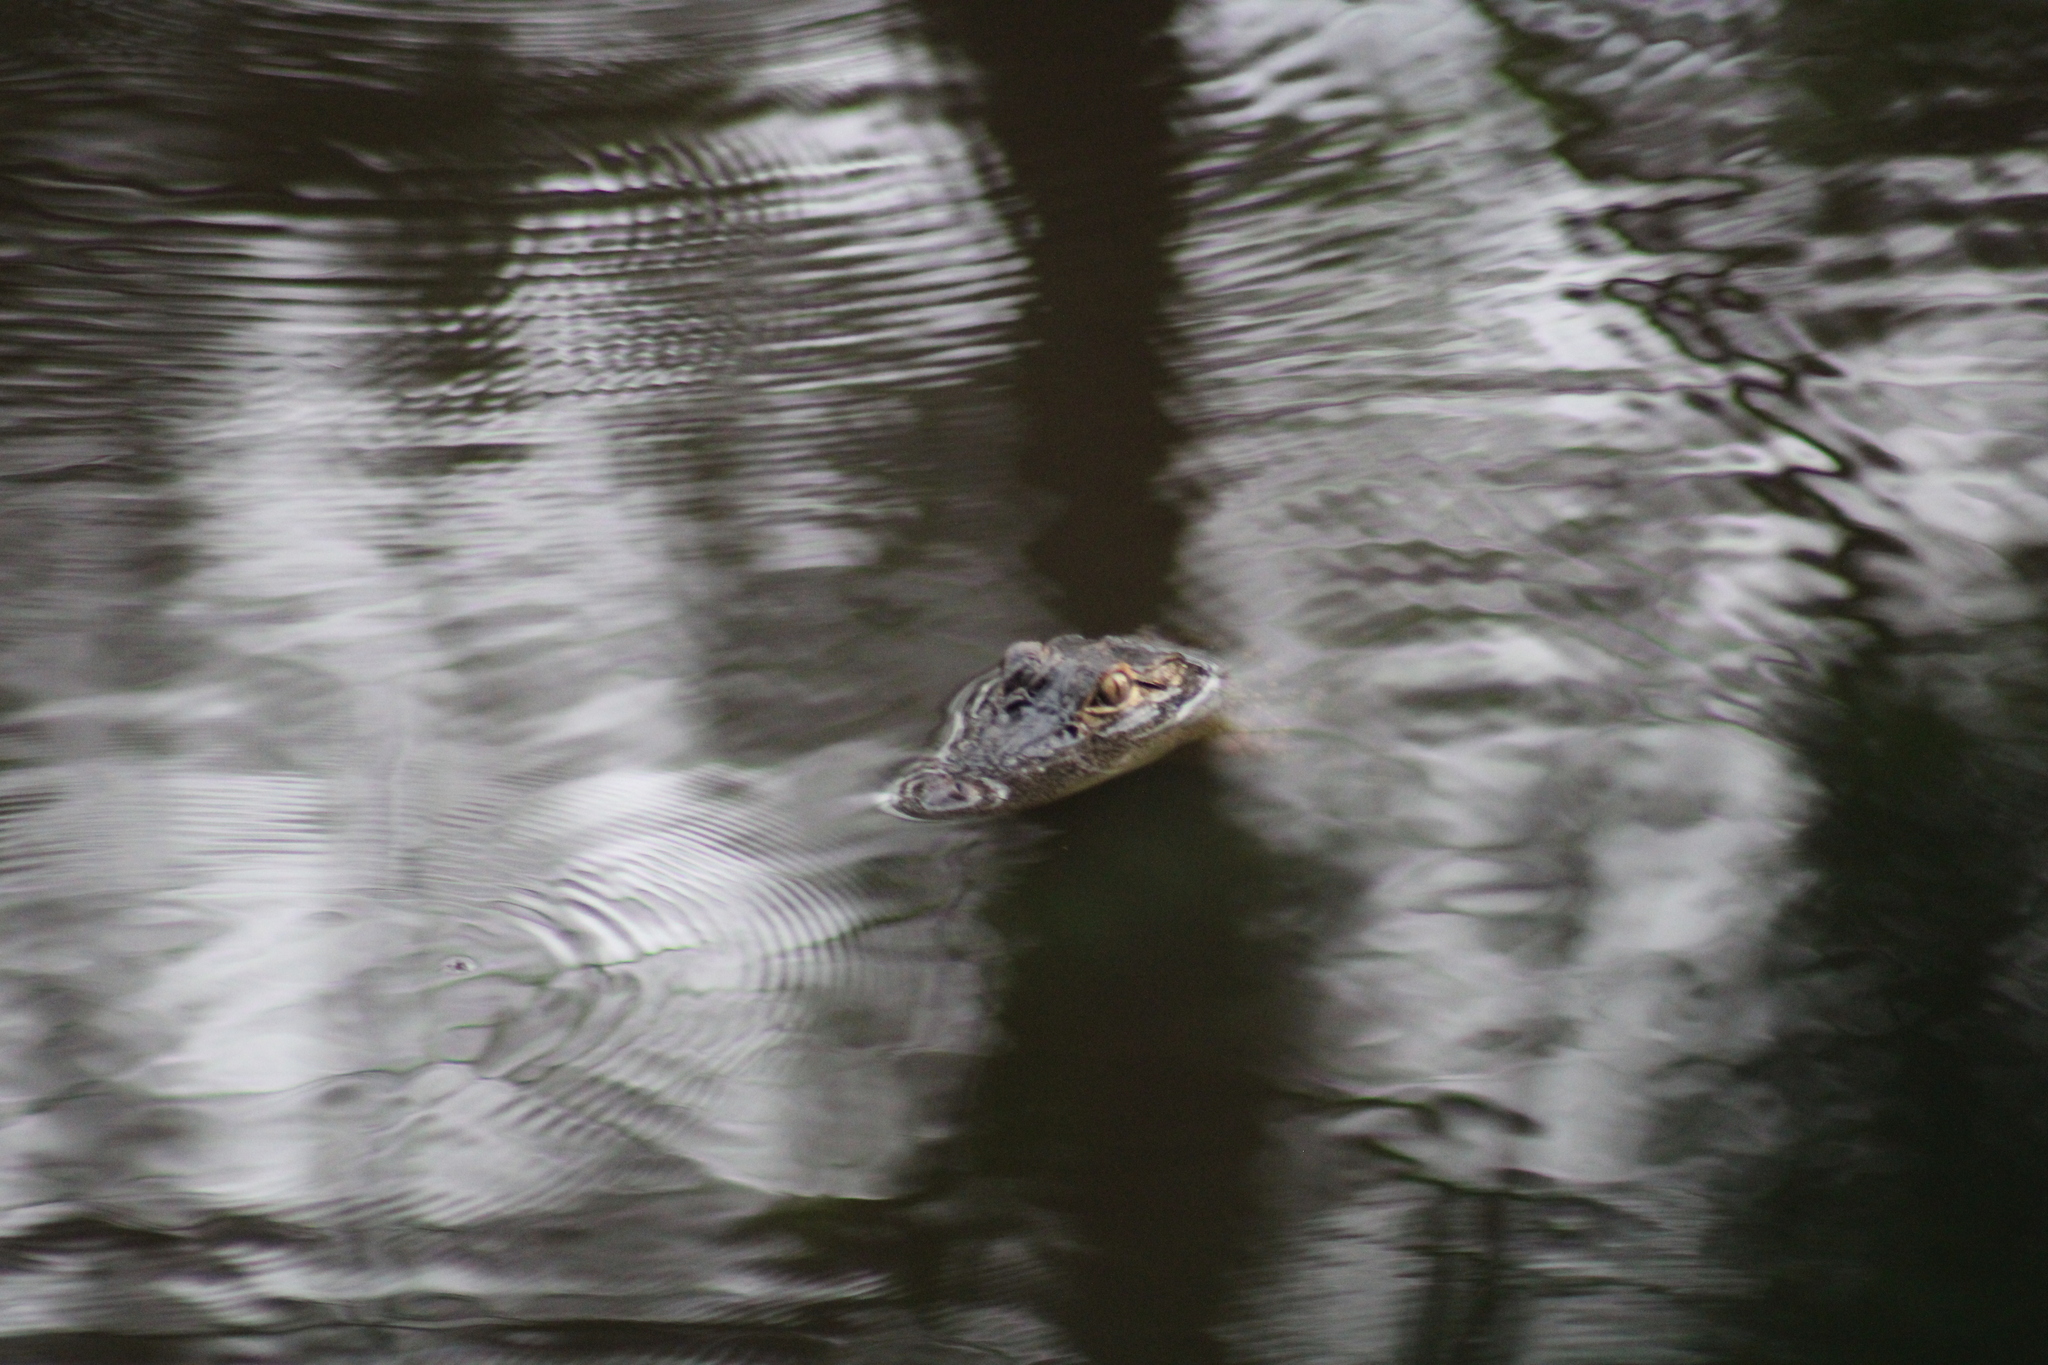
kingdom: Animalia
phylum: Chordata
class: Crocodylia
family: Alligatoridae
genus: Alligator
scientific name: Alligator mississippiensis
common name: American alligator
